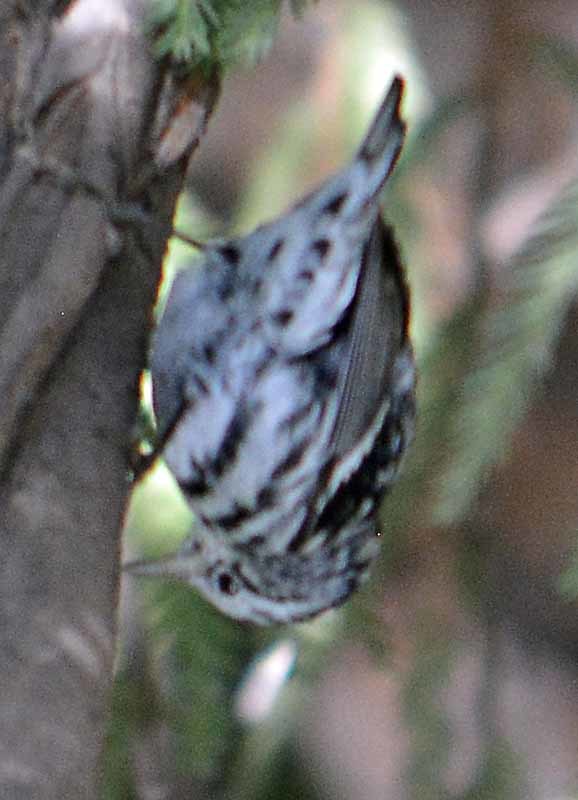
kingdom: Animalia
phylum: Chordata
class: Aves
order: Passeriformes
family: Parulidae
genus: Mniotilta
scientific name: Mniotilta varia
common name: Black-and-white warbler
